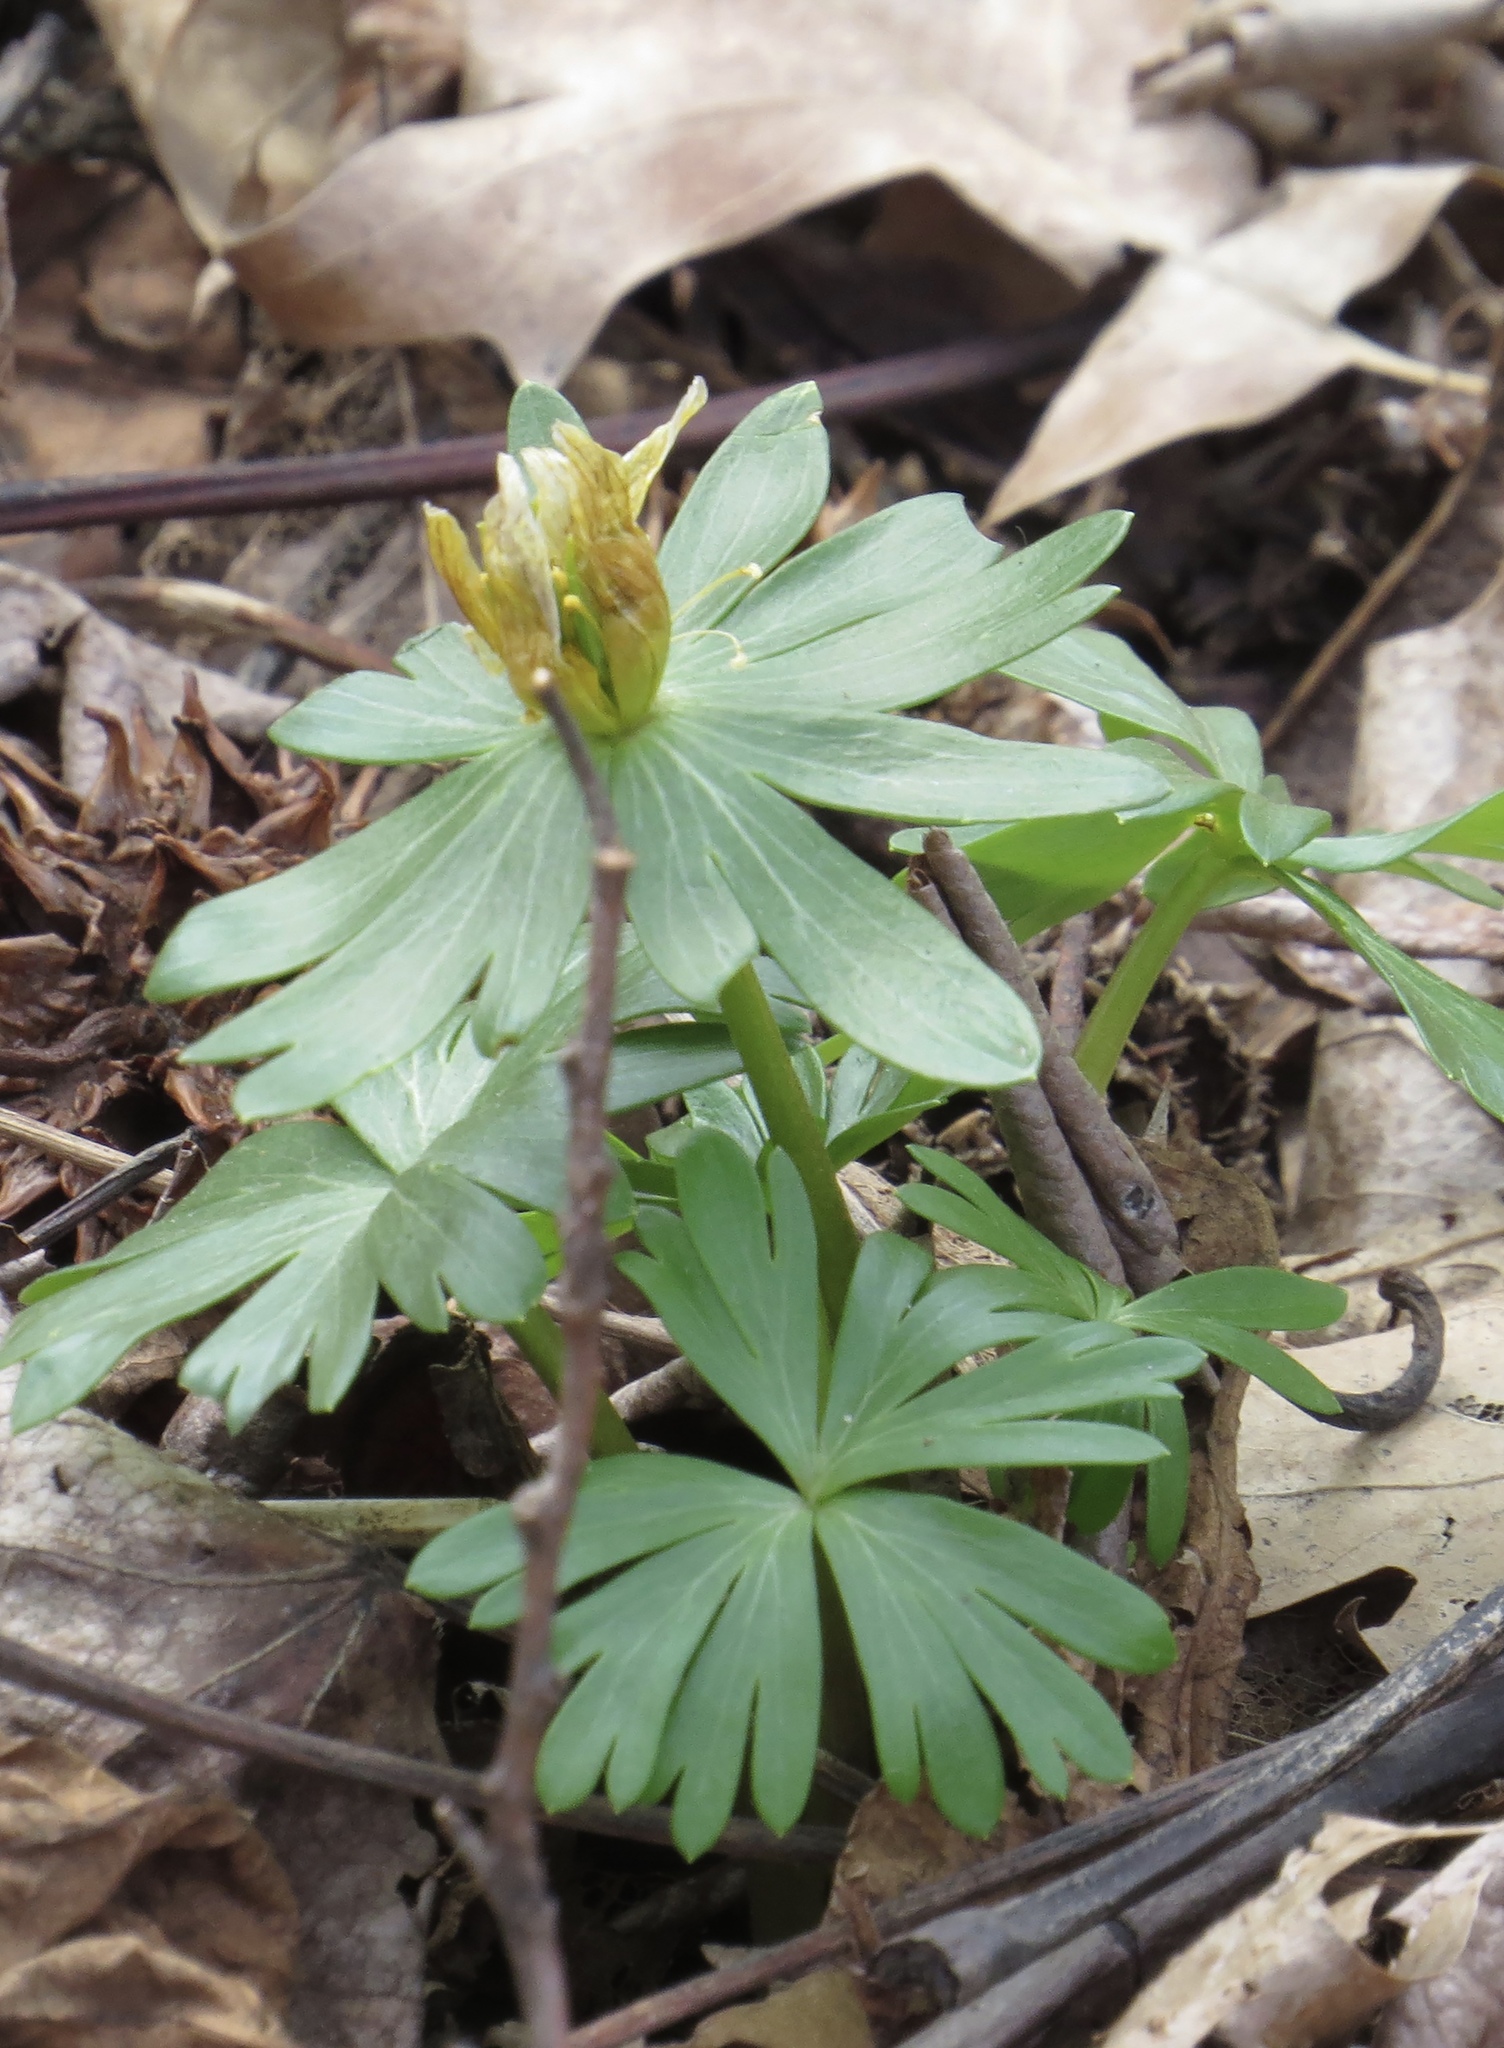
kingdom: Plantae
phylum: Tracheophyta
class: Magnoliopsida
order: Ranunculales
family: Ranunculaceae
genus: Eranthis
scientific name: Eranthis hyemalis
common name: Winter aconite
